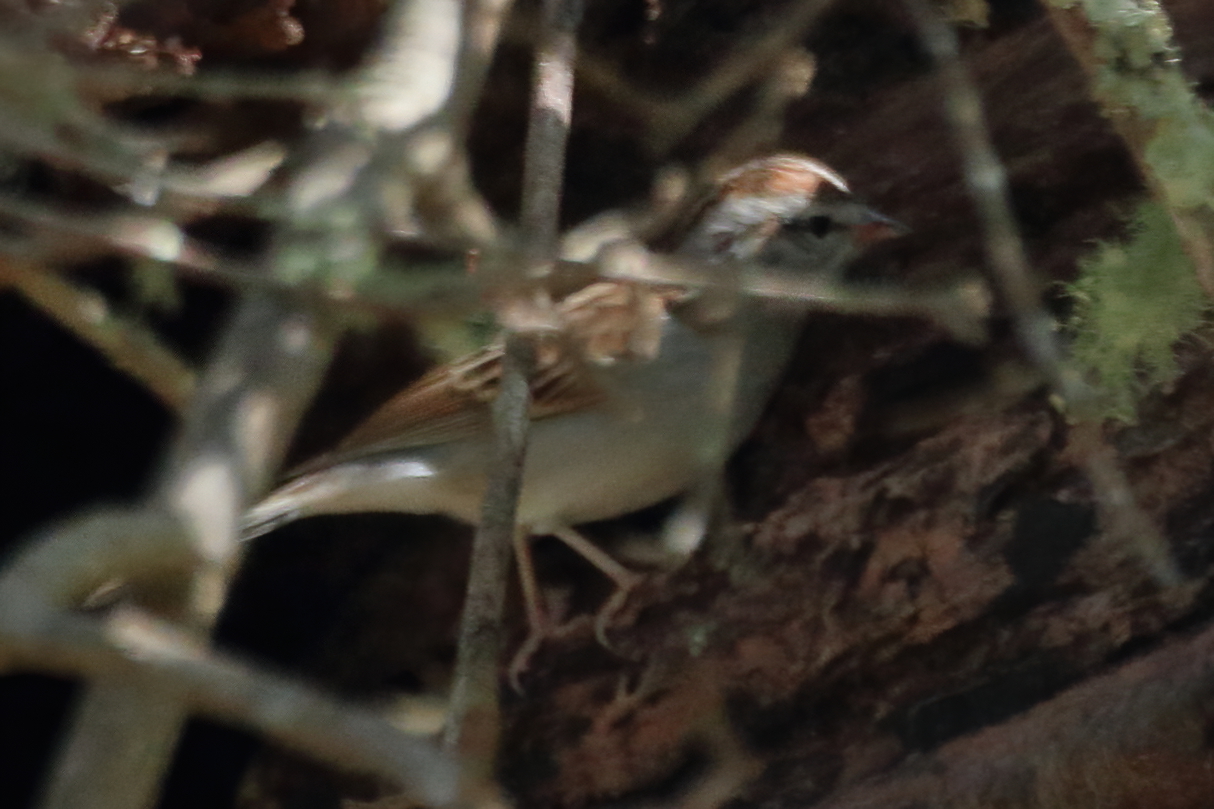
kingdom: Animalia
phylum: Chordata
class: Aves
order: Passeriformes
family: Passerellidae
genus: Spizella
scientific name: Spizella passerina
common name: Chipping sparrow
